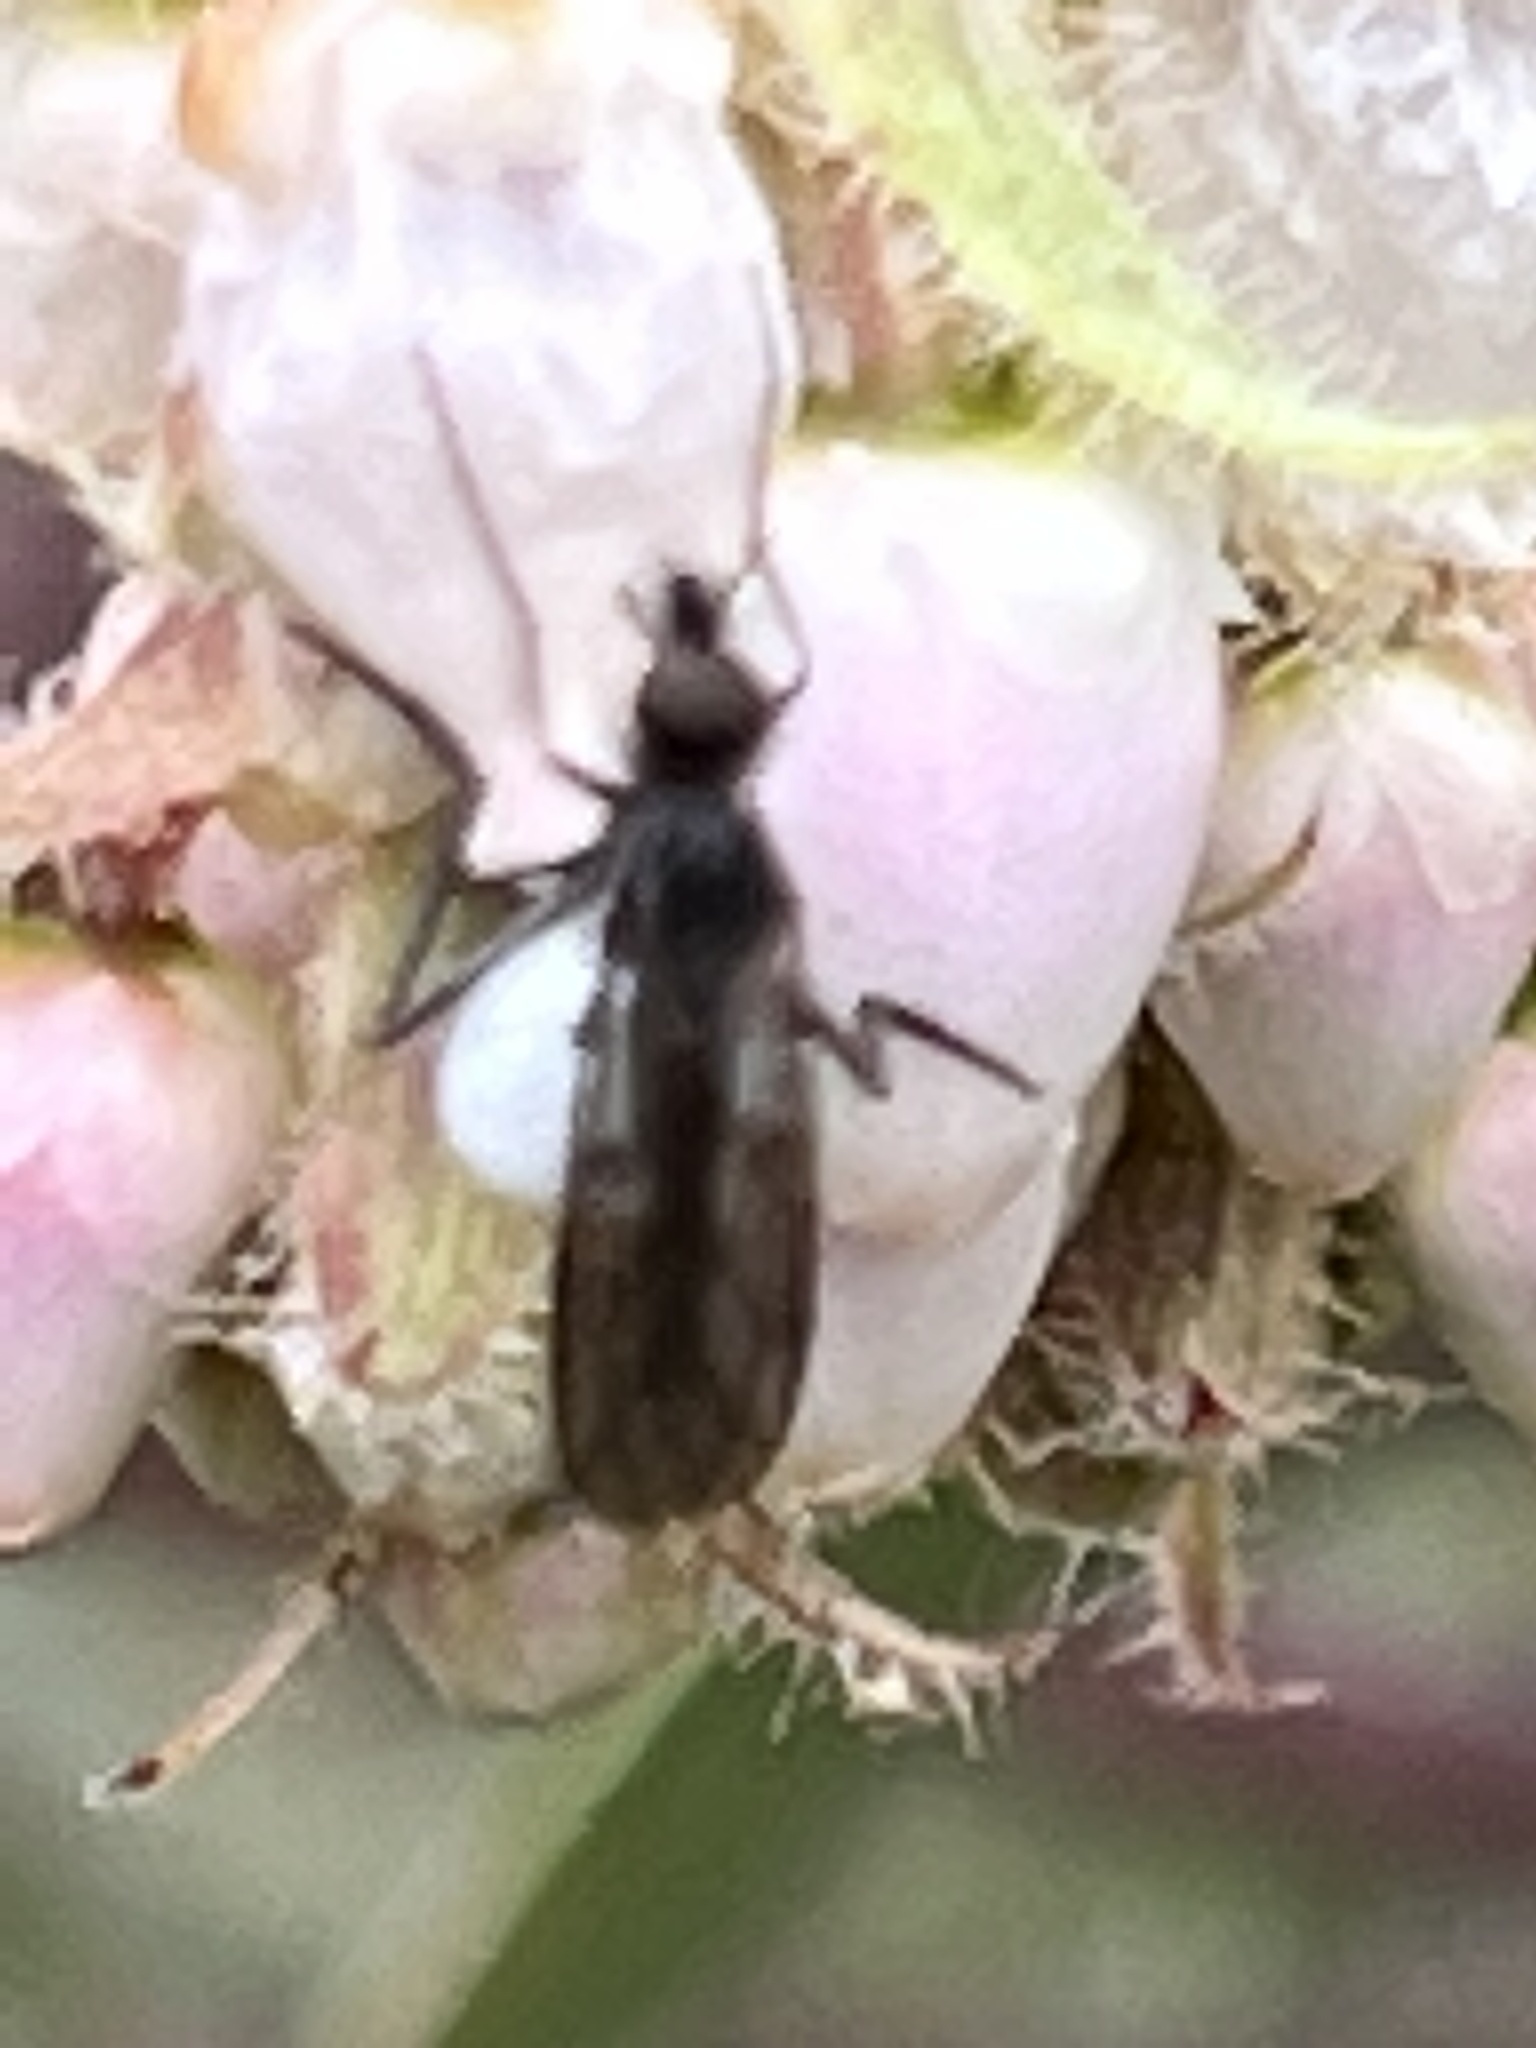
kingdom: Animalia
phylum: Arthropoda
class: Insecta
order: Diptera
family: Empididae
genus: Empis
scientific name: Empis geneatis
